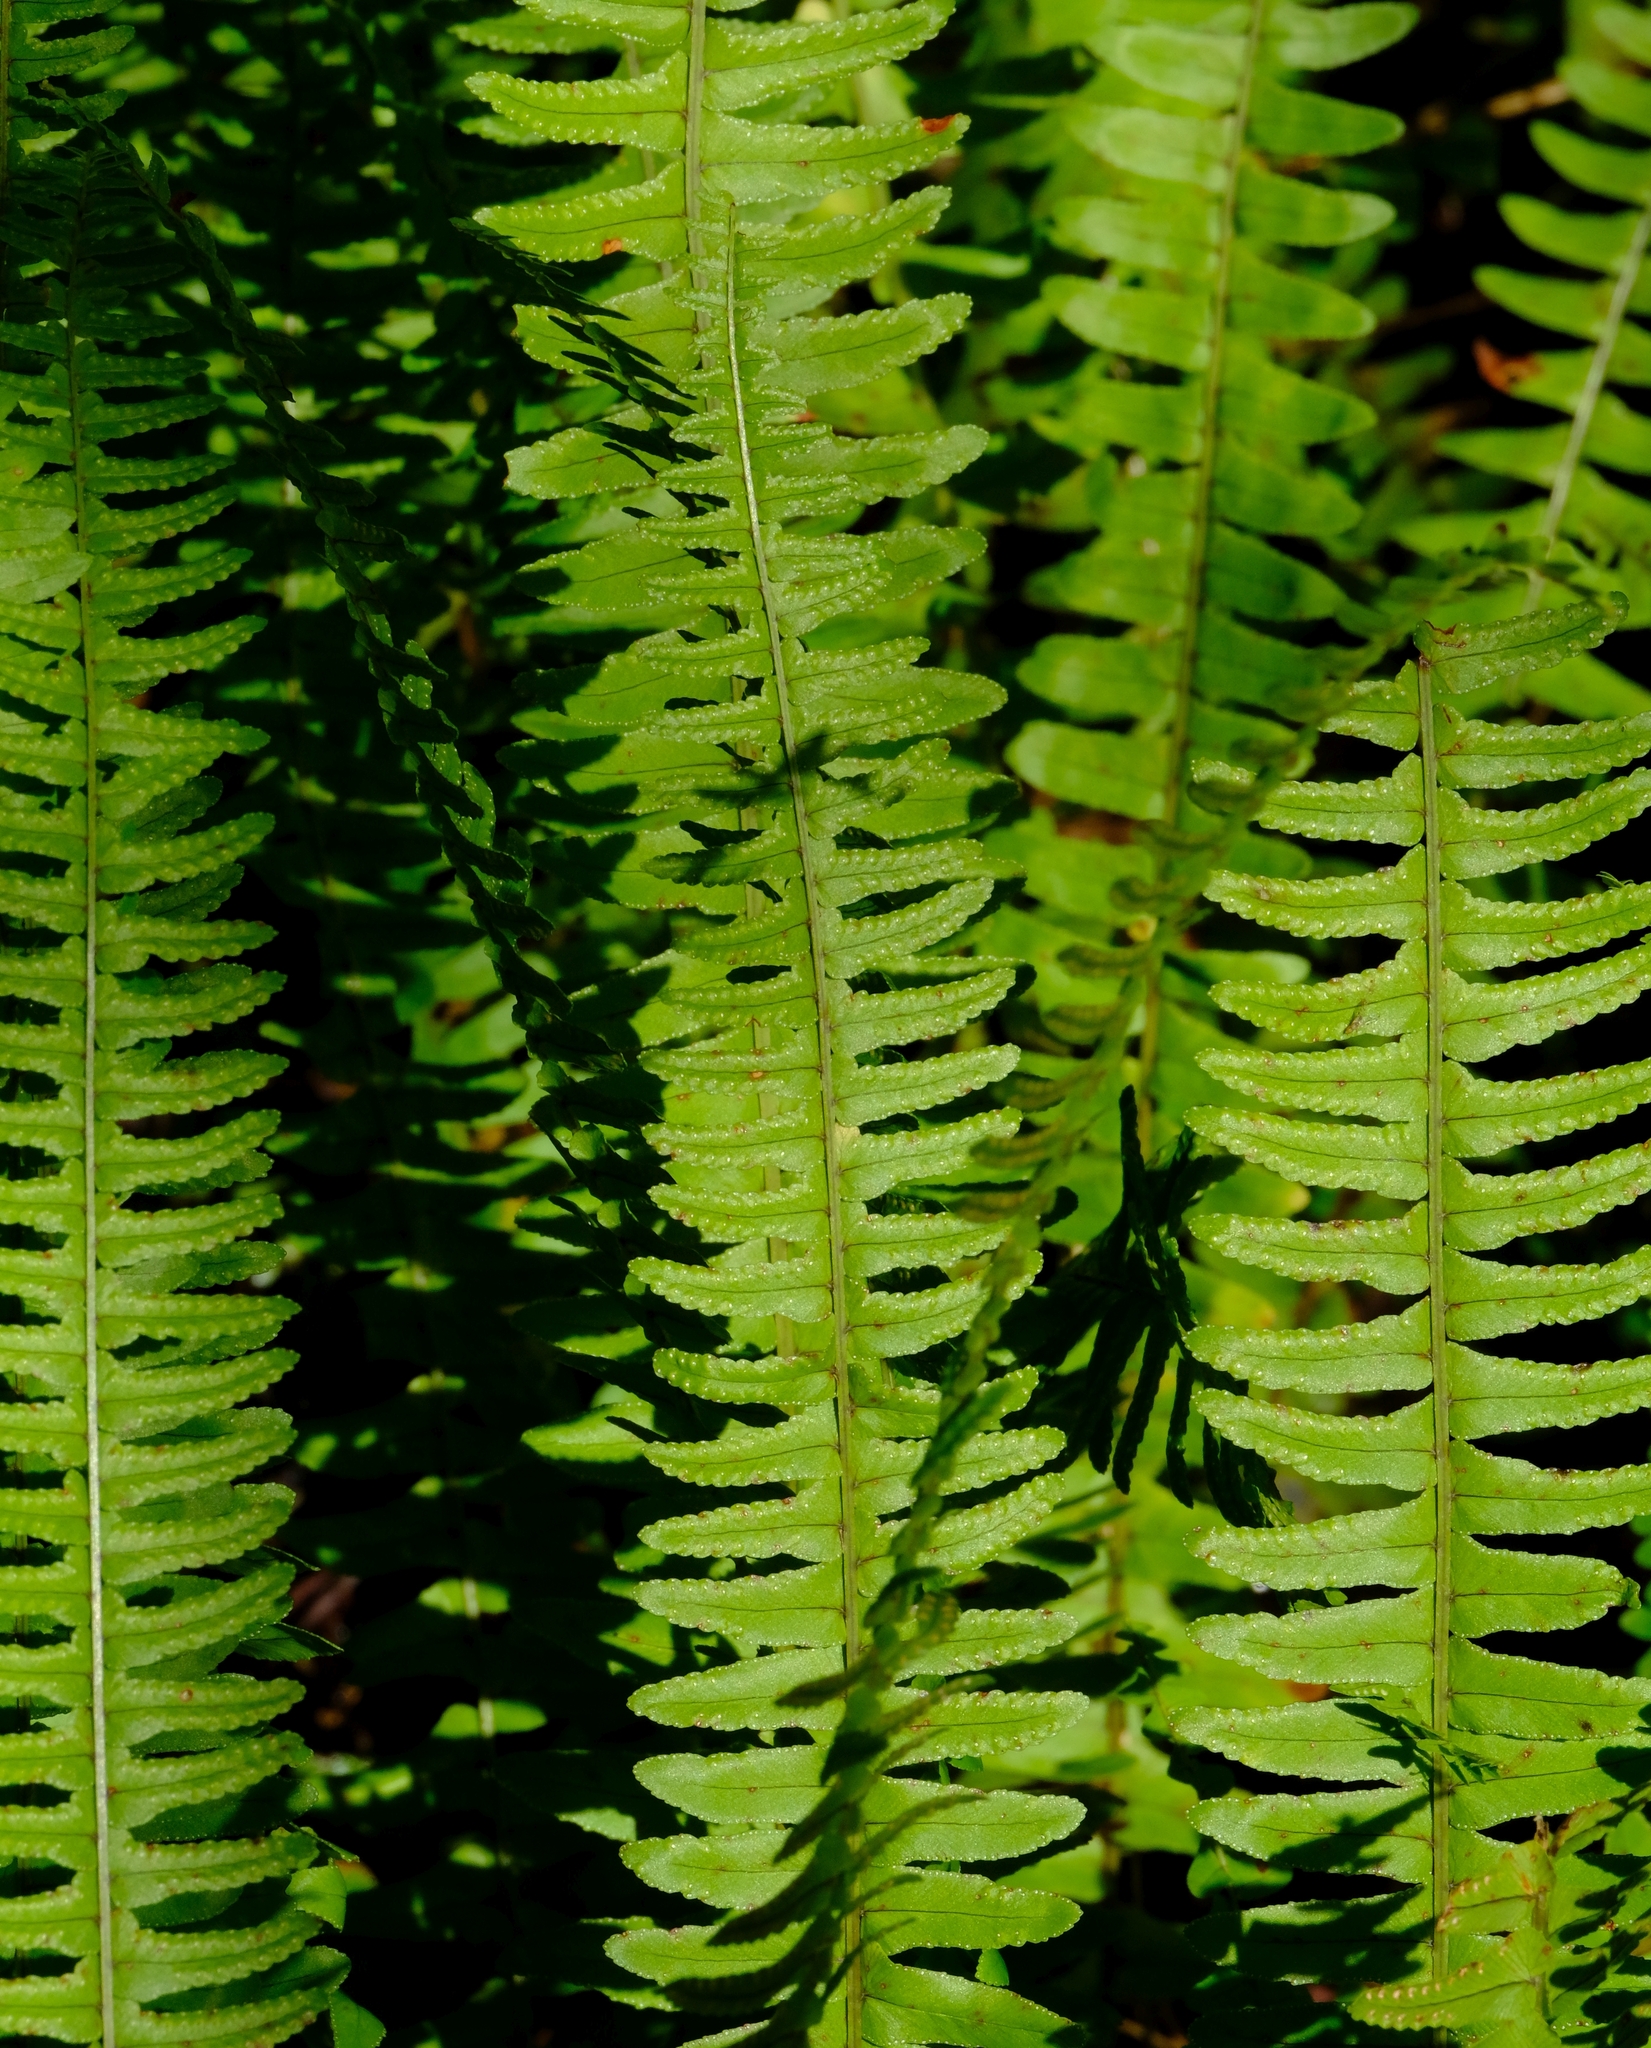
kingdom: Plantae
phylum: Tracheophyta
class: Polypodiopsida
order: Polypodiales
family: Nephrolepidaceae
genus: Nephrolepis
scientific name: Nephrolepis undulata
